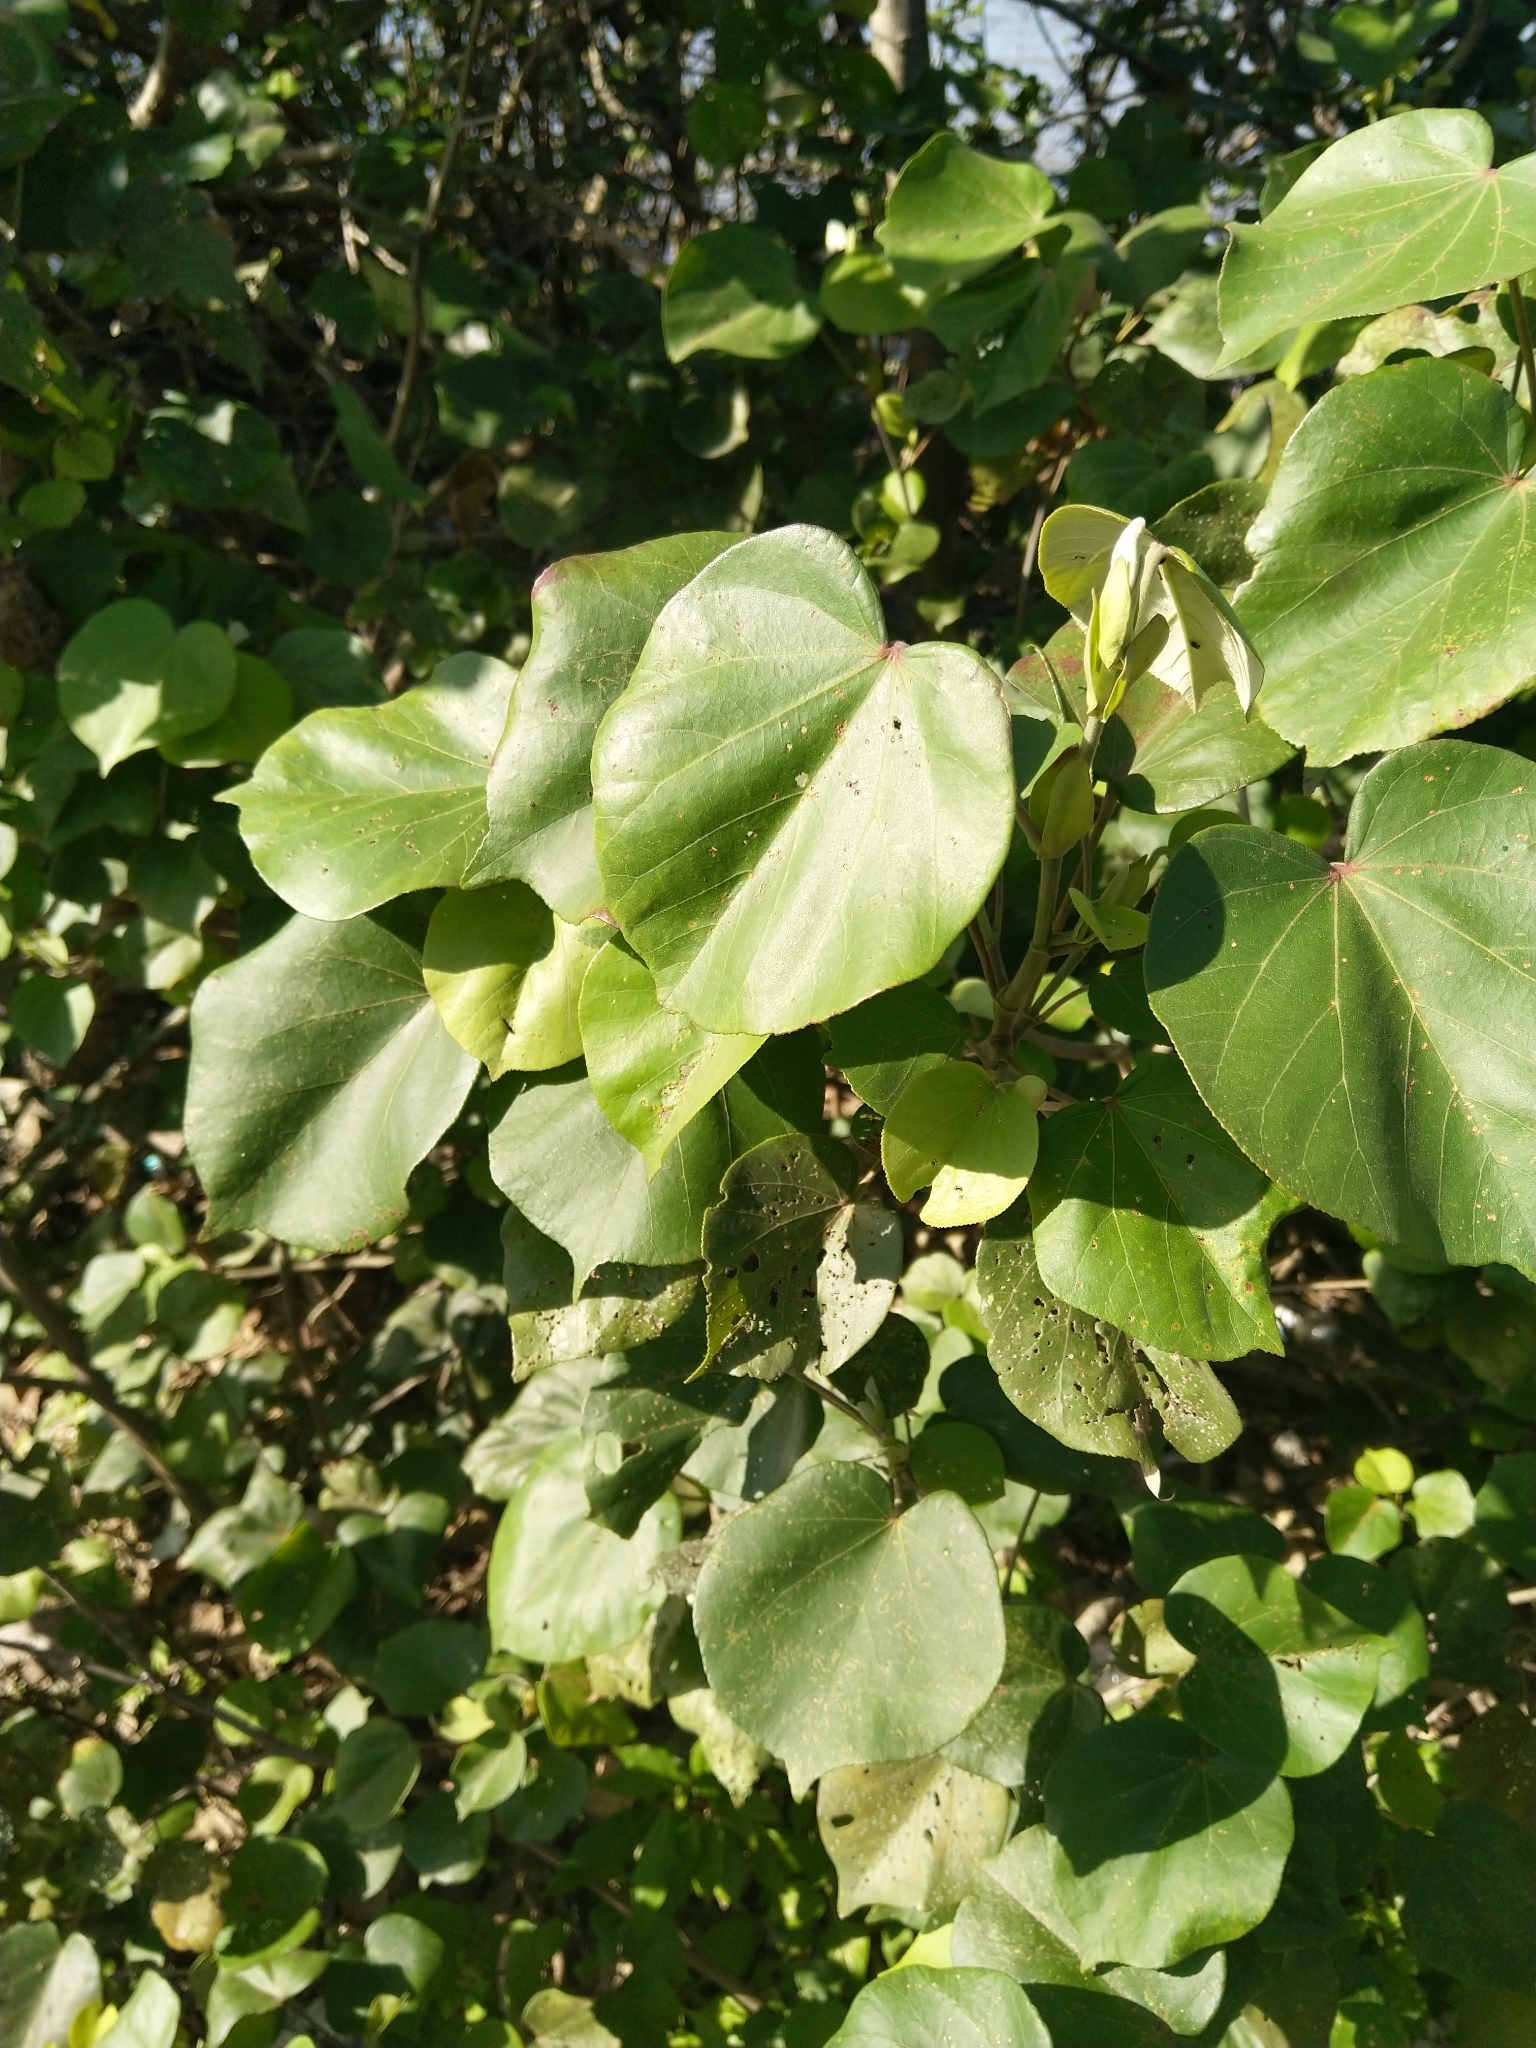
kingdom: Plantae
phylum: Tracheophyta
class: Magnoliopsida
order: Malvales
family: Malvaceae
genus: Talipariti
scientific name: Talipariti tiliaceum
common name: Sea hibiscus
